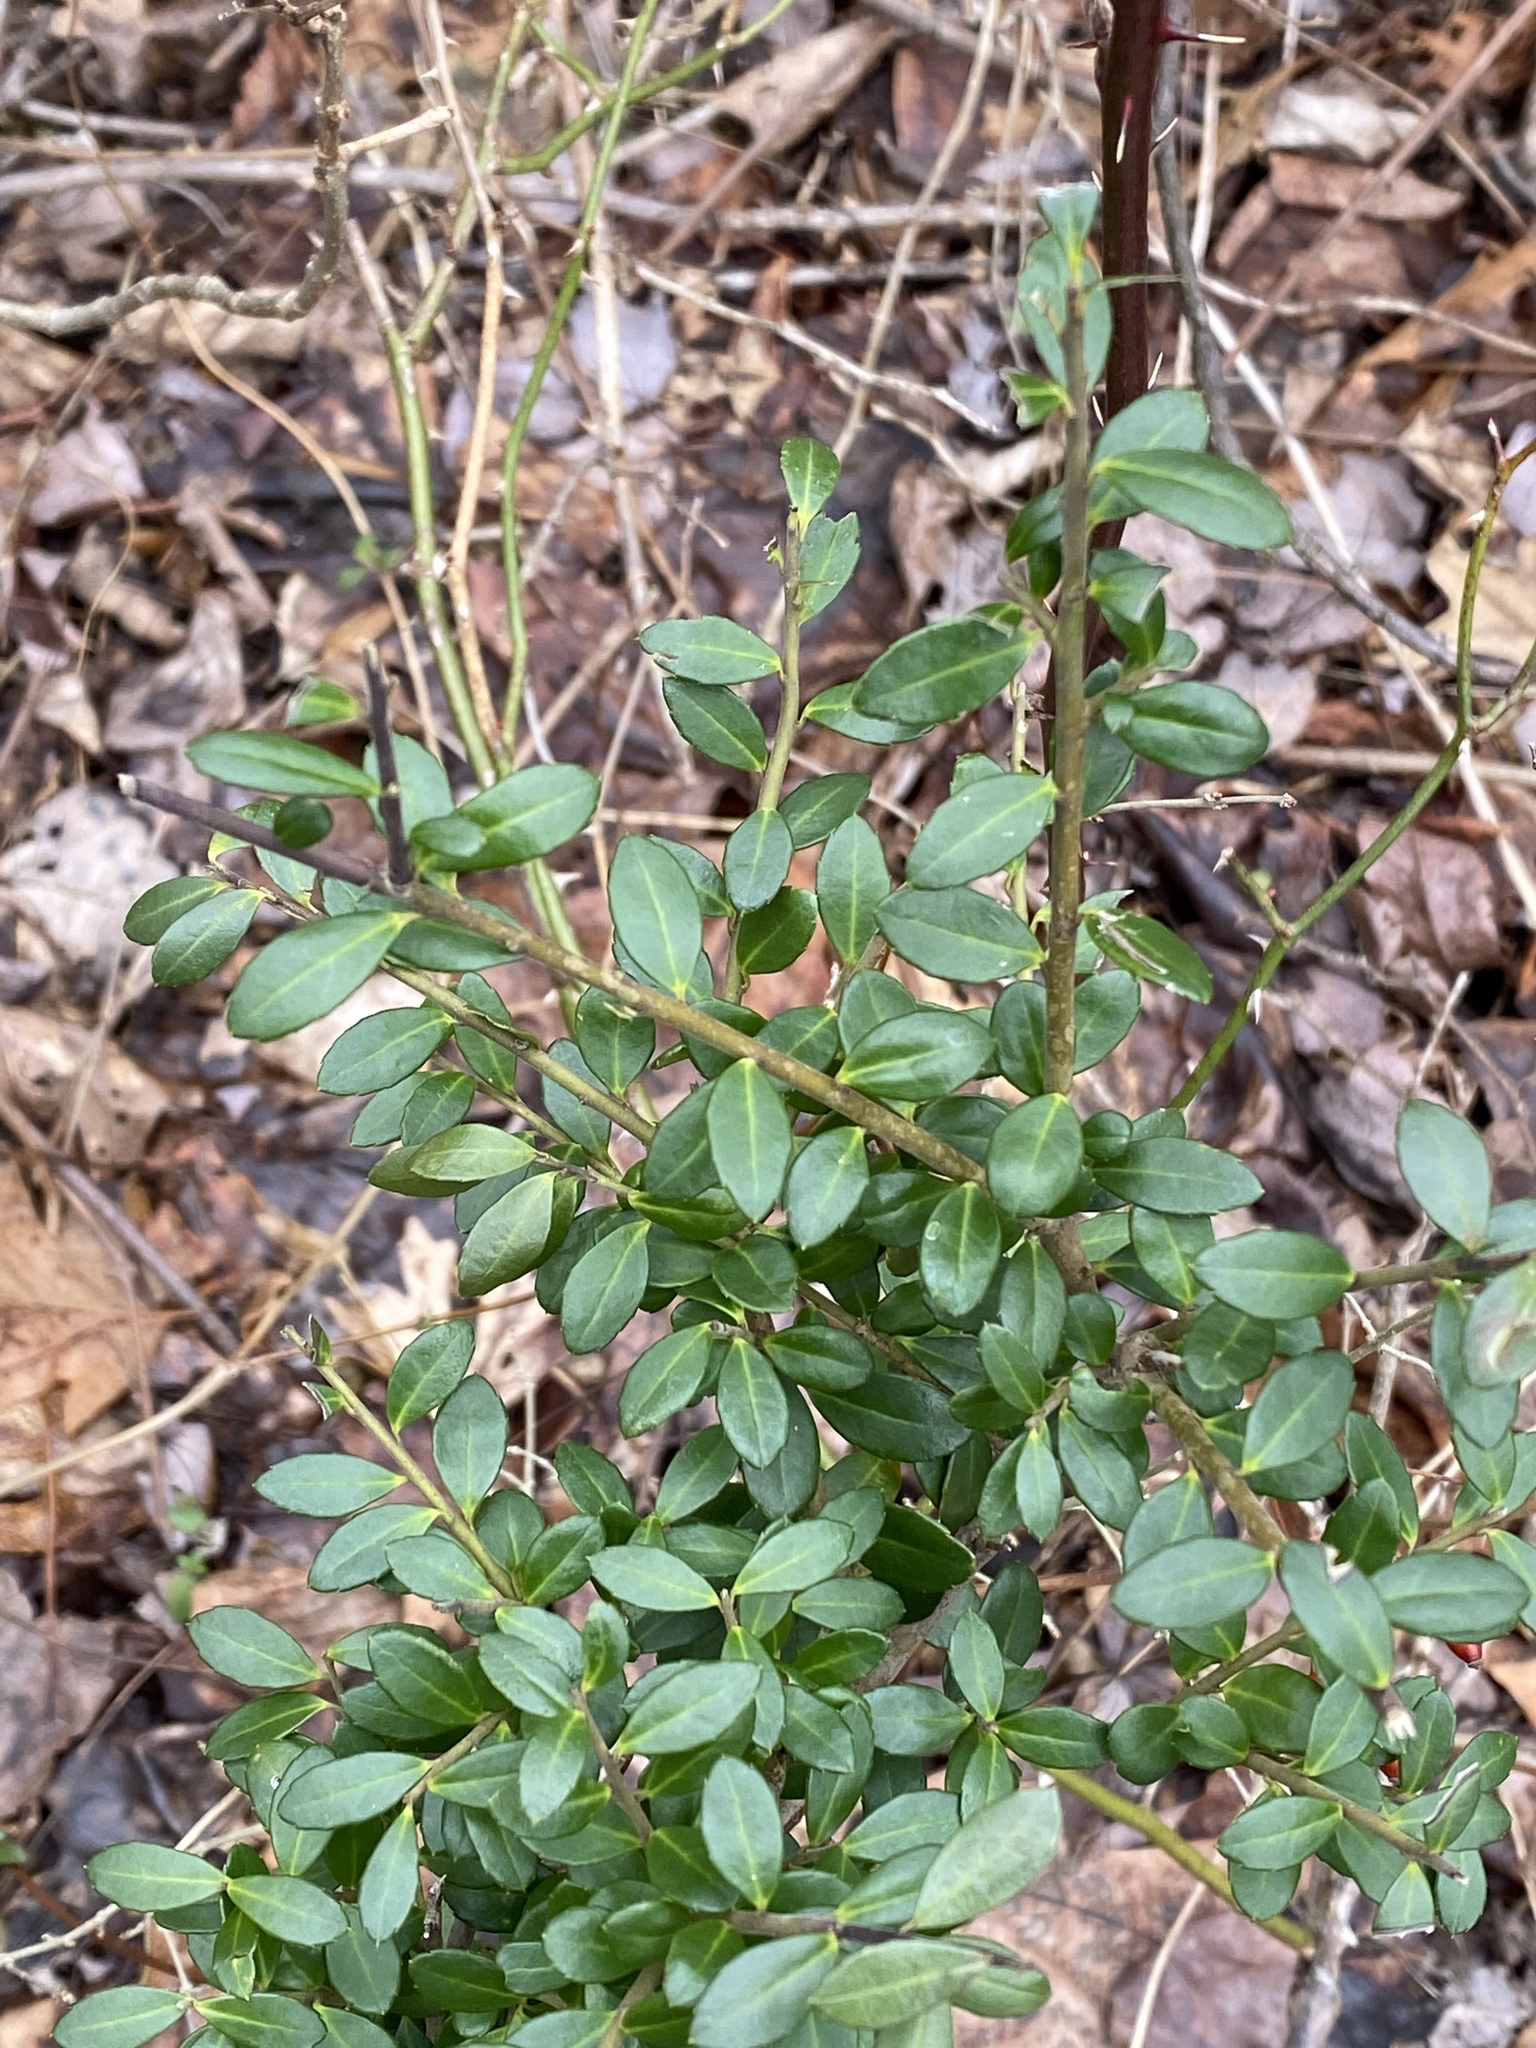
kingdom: Plantae
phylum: Tracheophyta
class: Magnoliopsida
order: Aquifoliales
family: Aquifoliaceae
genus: Ilex
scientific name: Ilex crenata
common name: Japanese holly
